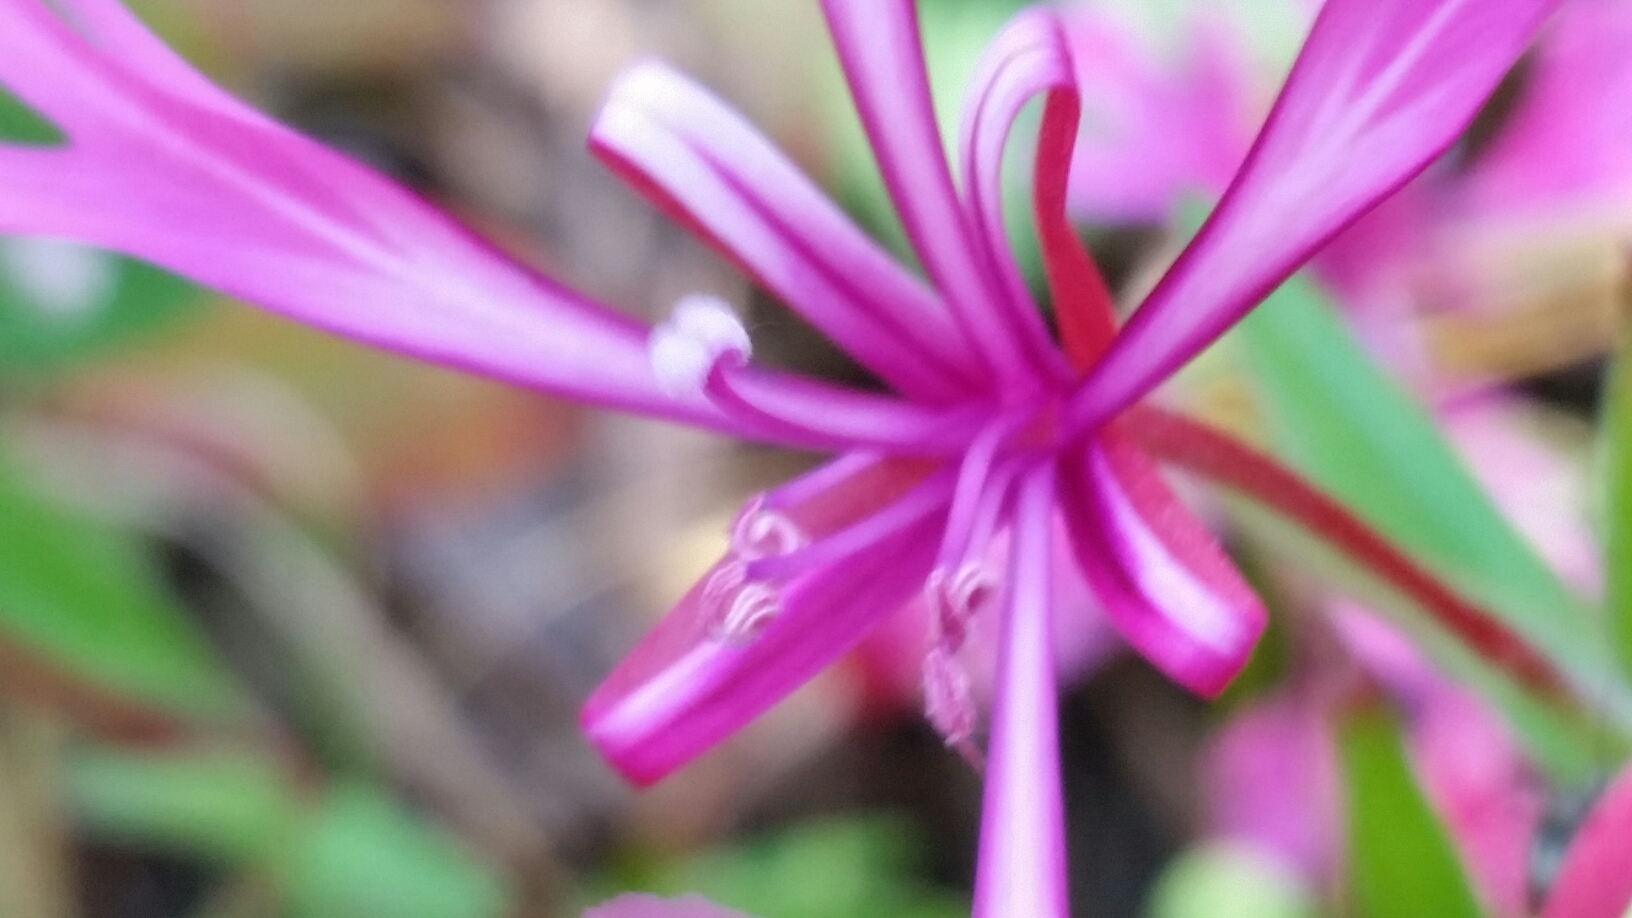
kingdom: Plantae
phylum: Tracheophyta
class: Magnoliopsida
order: Myrtales
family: Onagraceae
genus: Clarkia
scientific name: Clarkia concinna
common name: Red-ribbons
